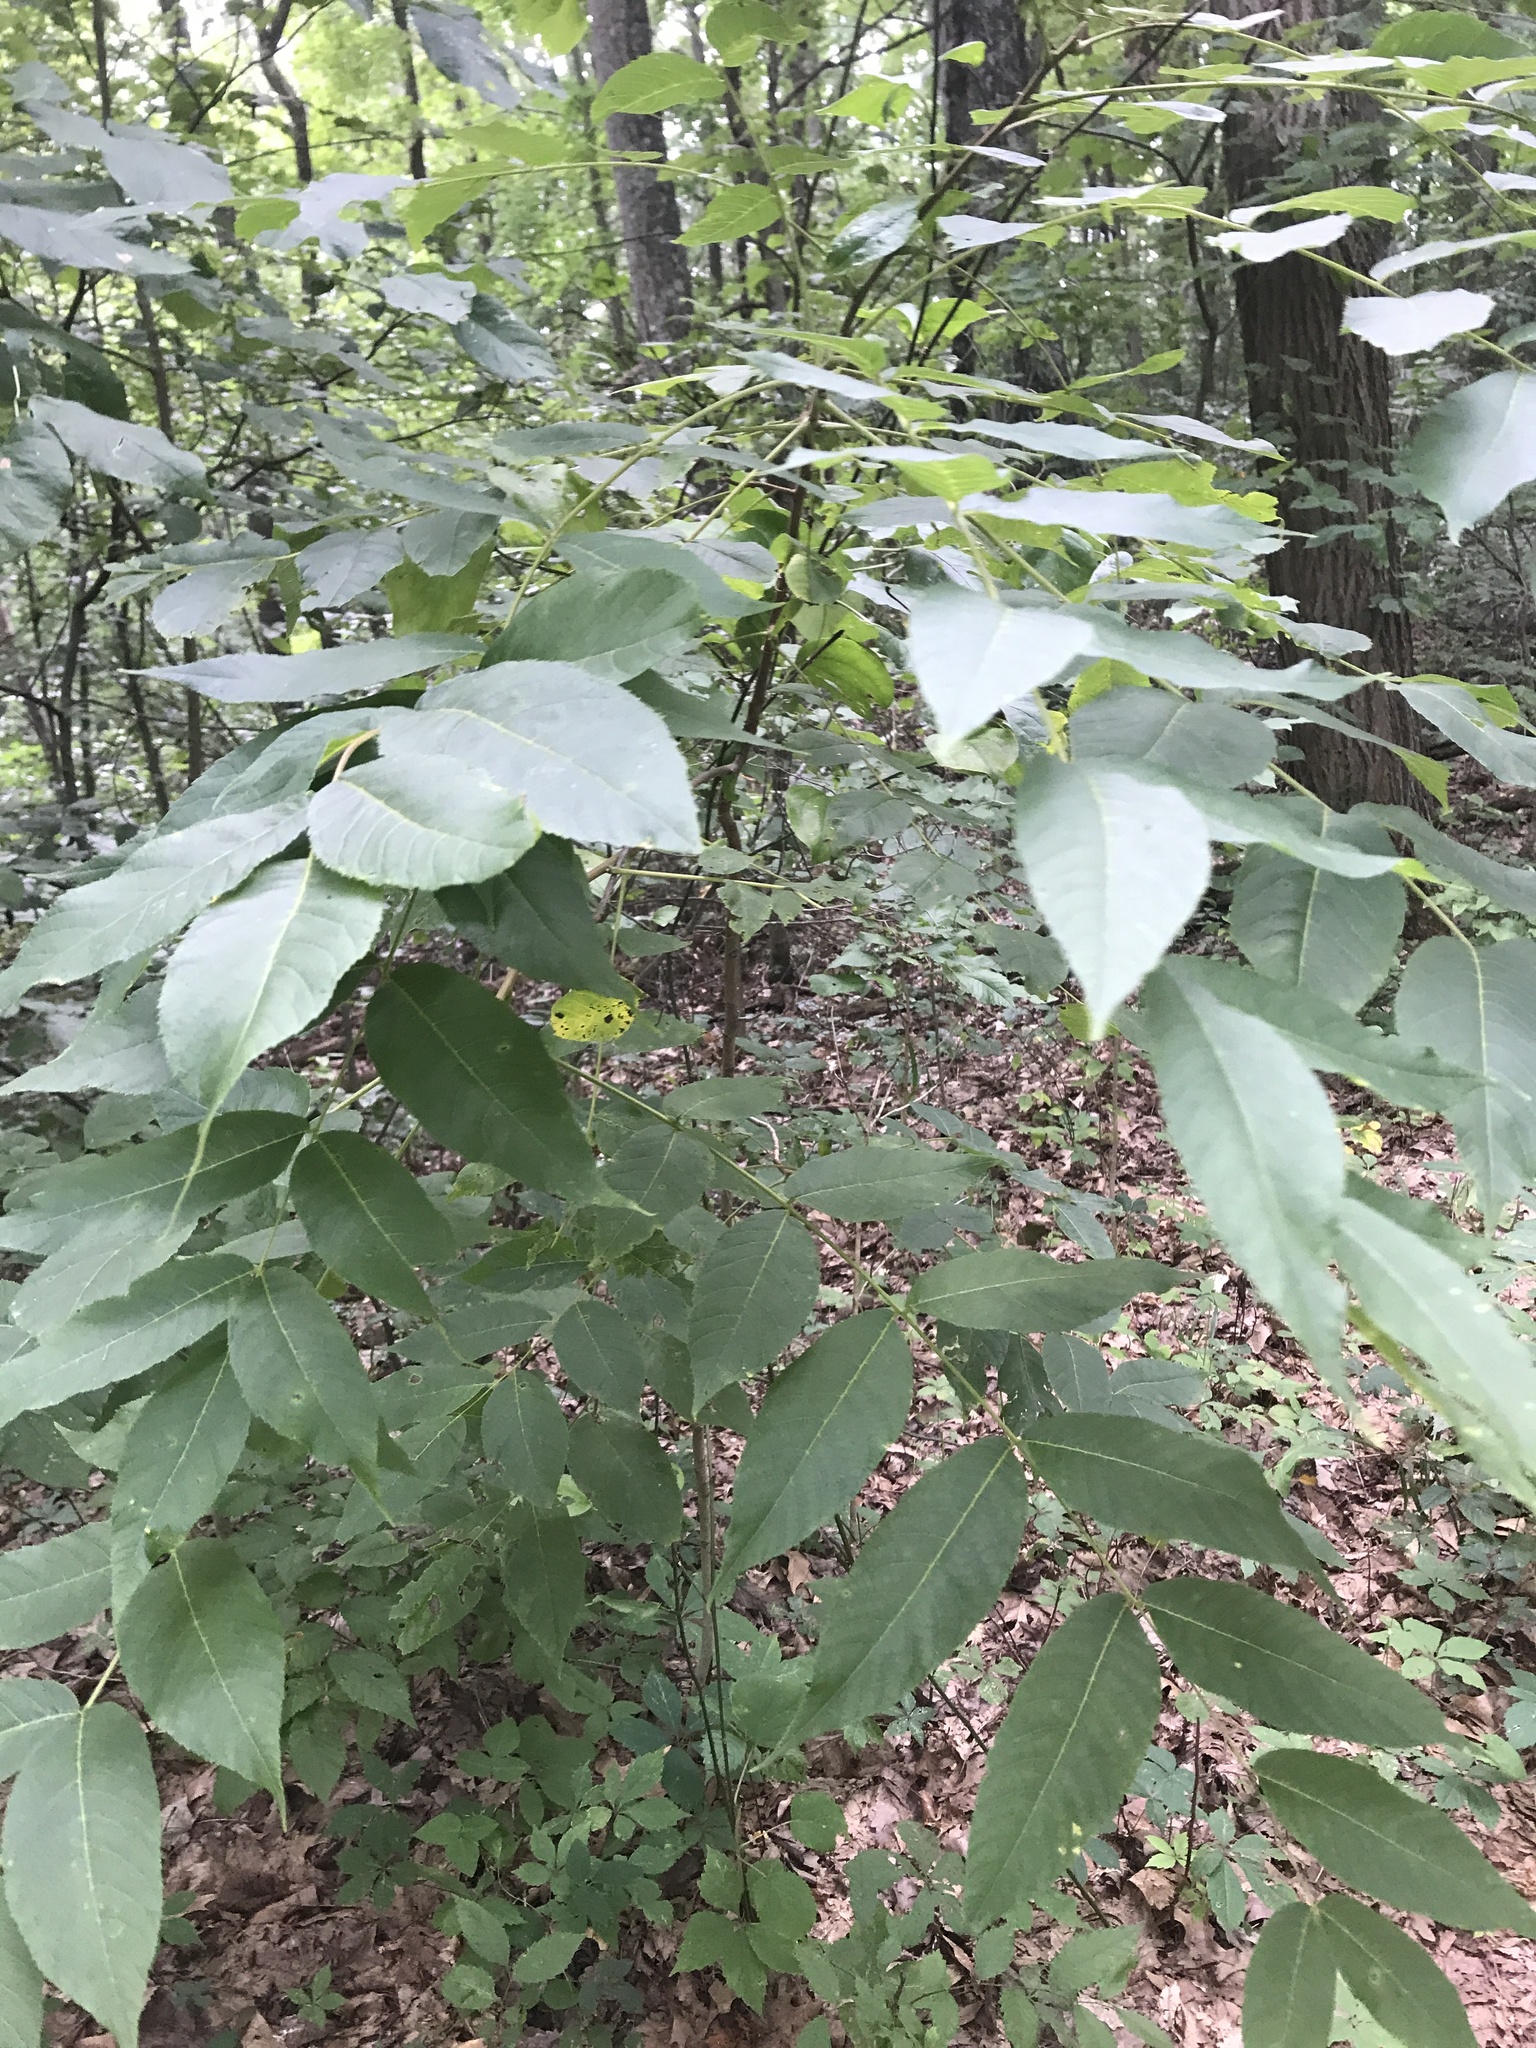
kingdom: Plantae
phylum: Tracheophyta
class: Magnoliopsida
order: Fagales
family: Juglandaceae
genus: Juglans
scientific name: Juglans nigra
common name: Black walnut
